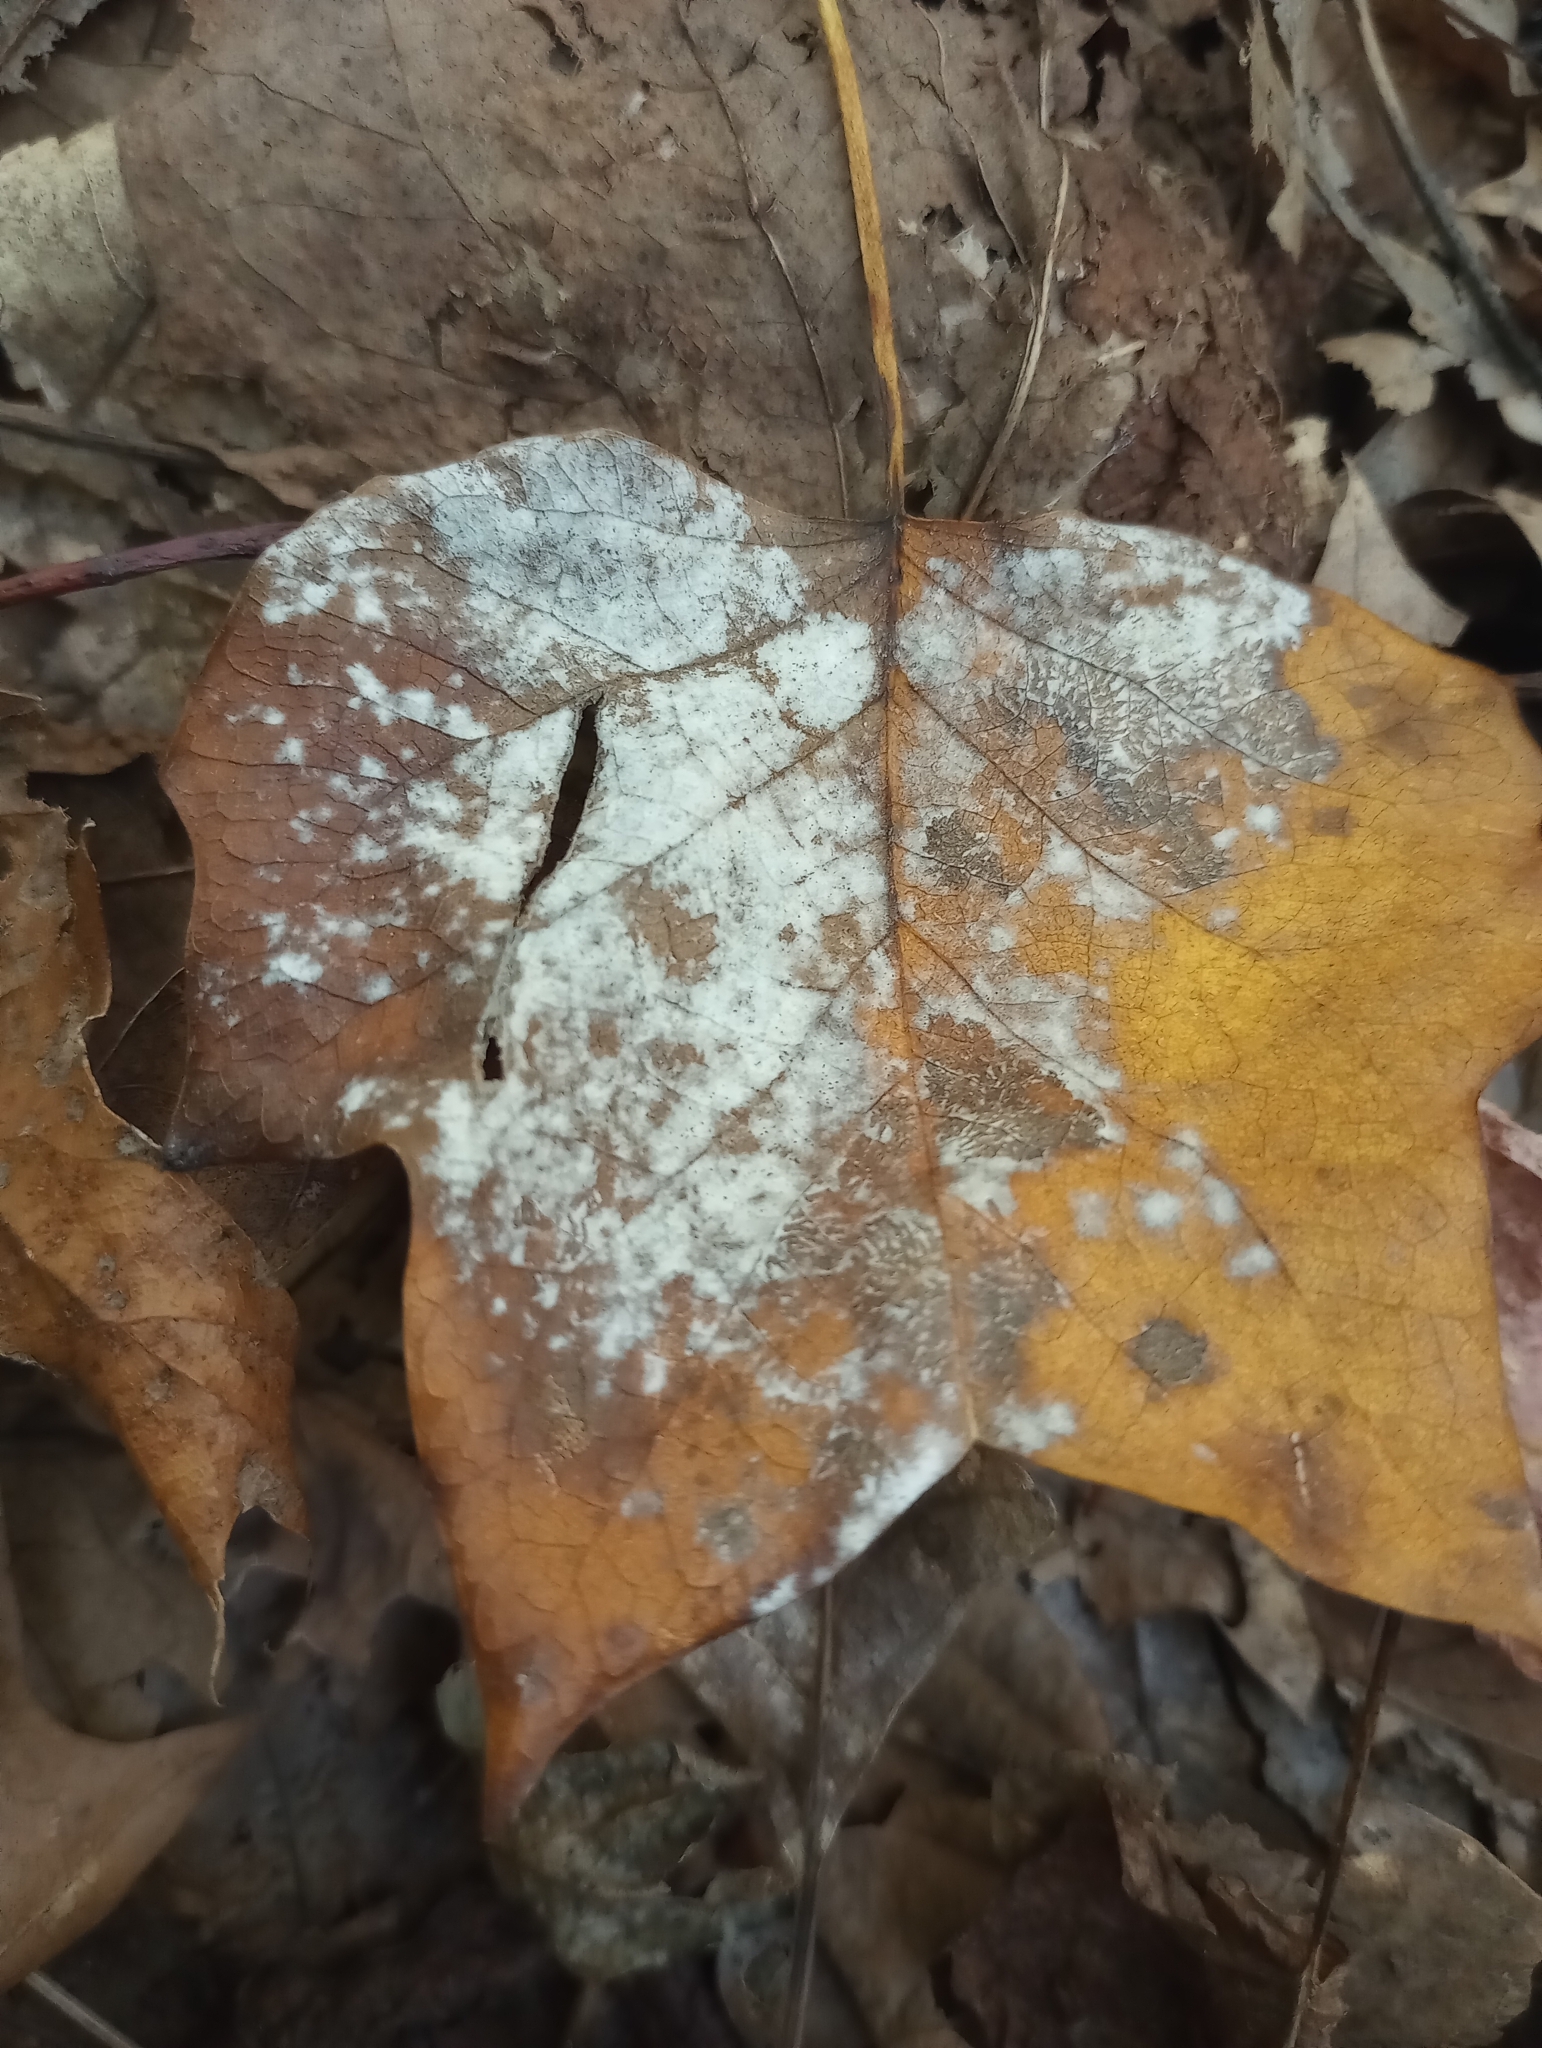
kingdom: Fungi
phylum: Ascomycota
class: Leotiomycetes
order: Helotiales
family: Erysiphaceae
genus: Erysiphe
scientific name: Erysiphe liriodendri
